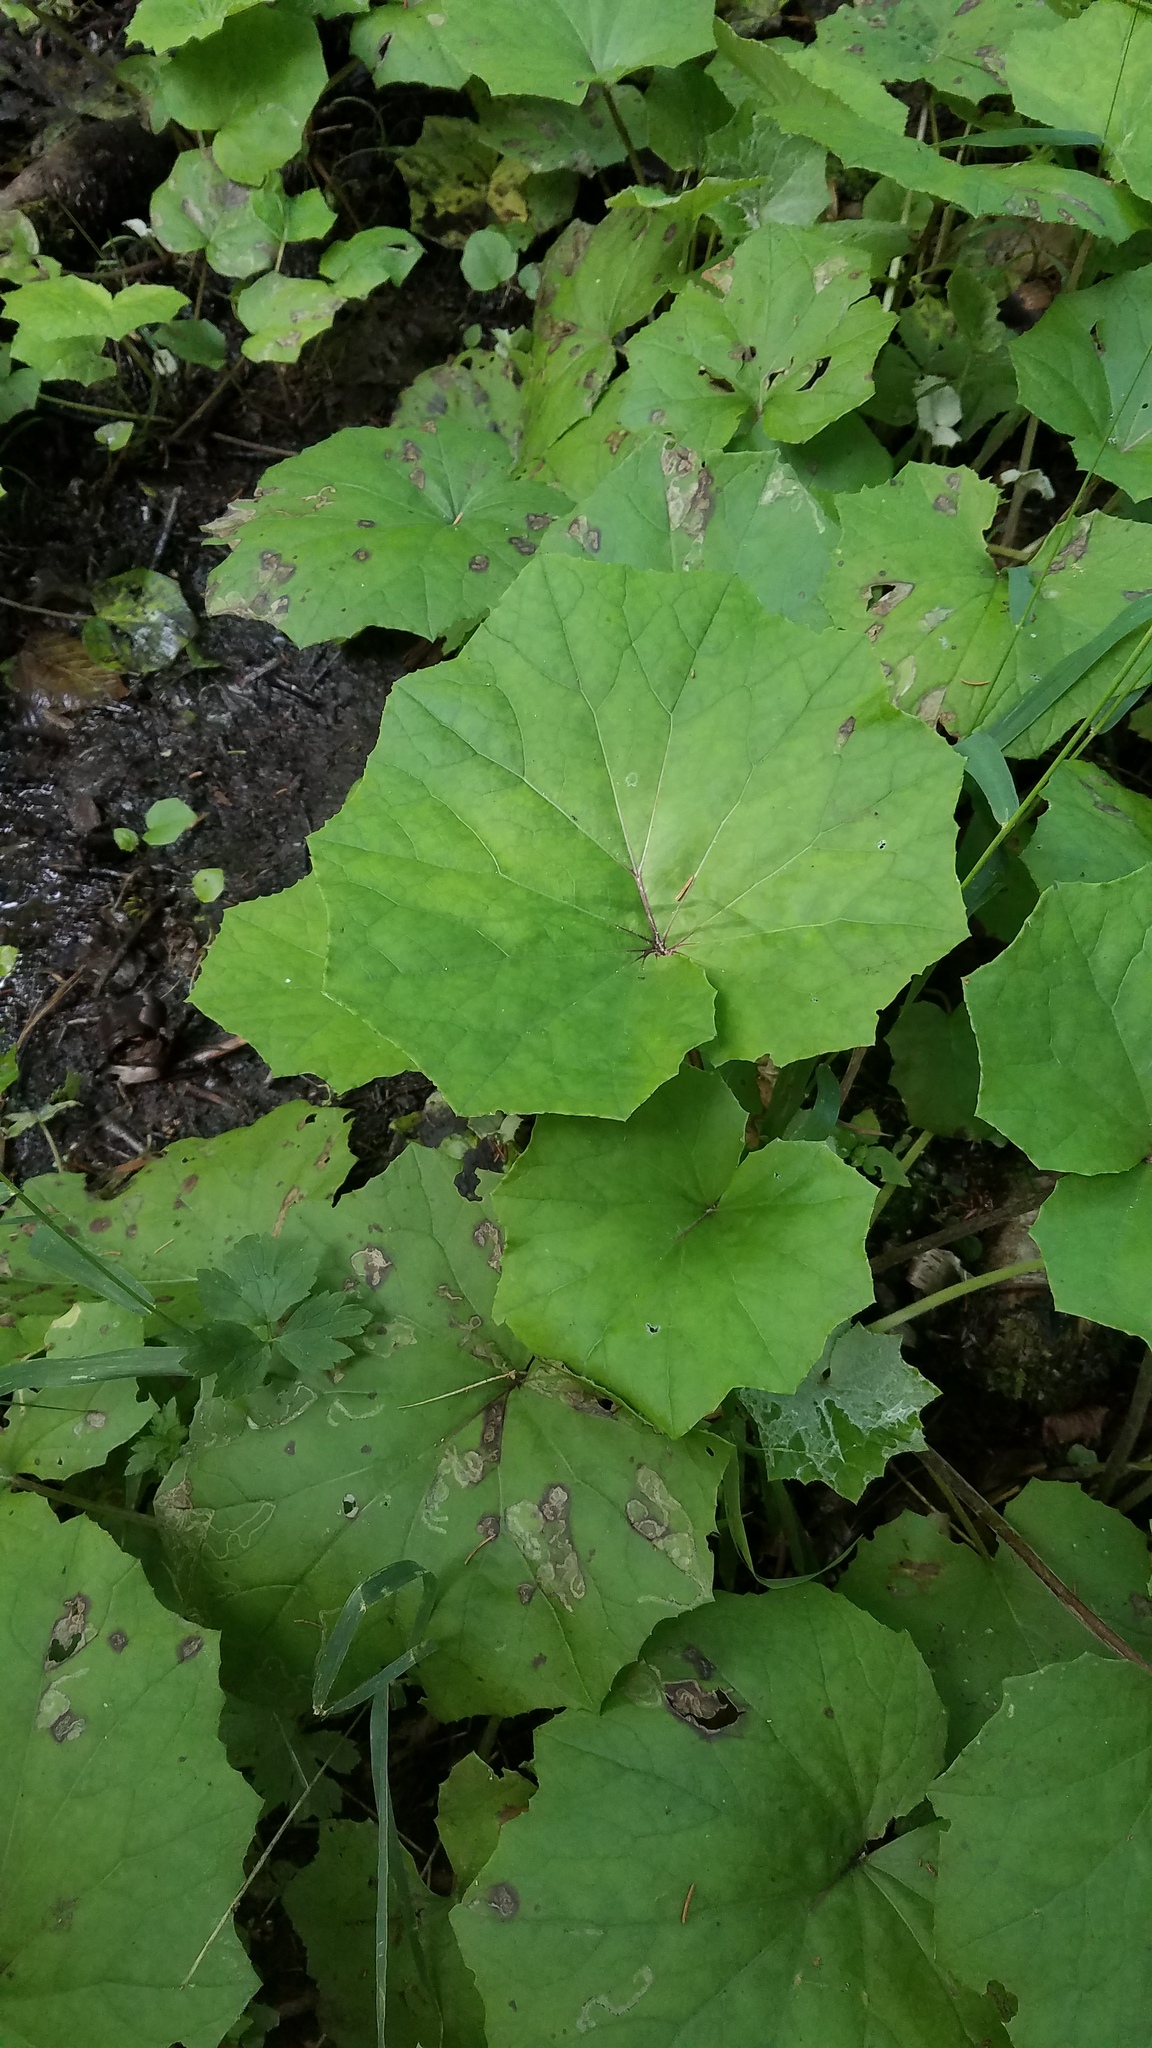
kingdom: Plantae
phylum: Tracheophyta
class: Magnoliopsida
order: Asterales
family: Asteraceae
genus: Tussilago
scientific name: Tussilago farfara
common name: Coltsfoot
